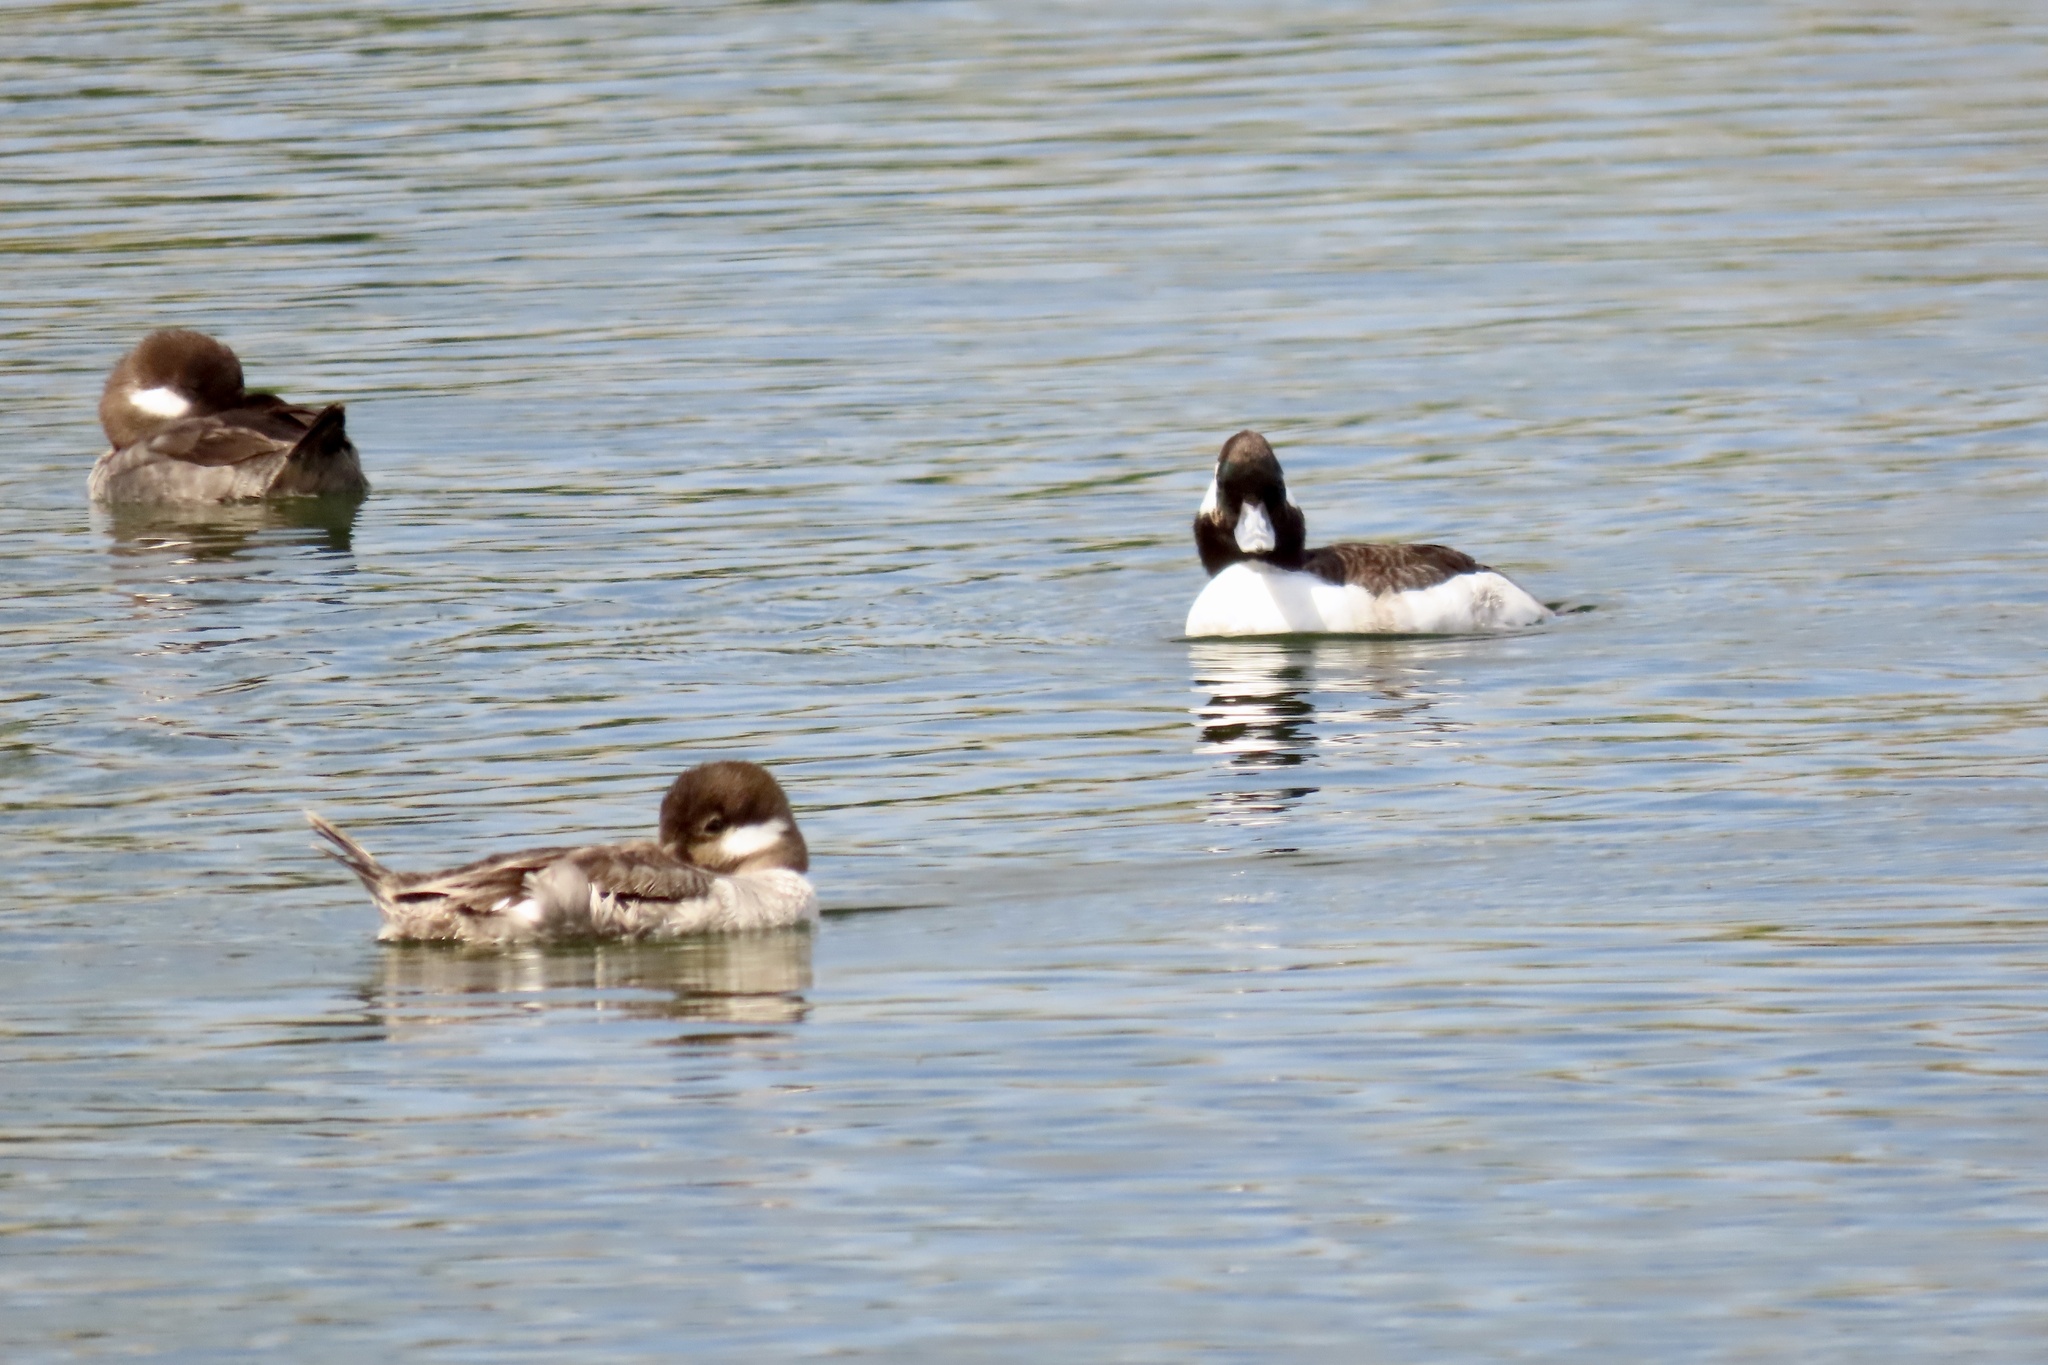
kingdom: Animalia
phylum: Chordata
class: Aves
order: Anseriformes
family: Anatidae
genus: Bucephala
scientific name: Bucephala albeola
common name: Bufflehead
